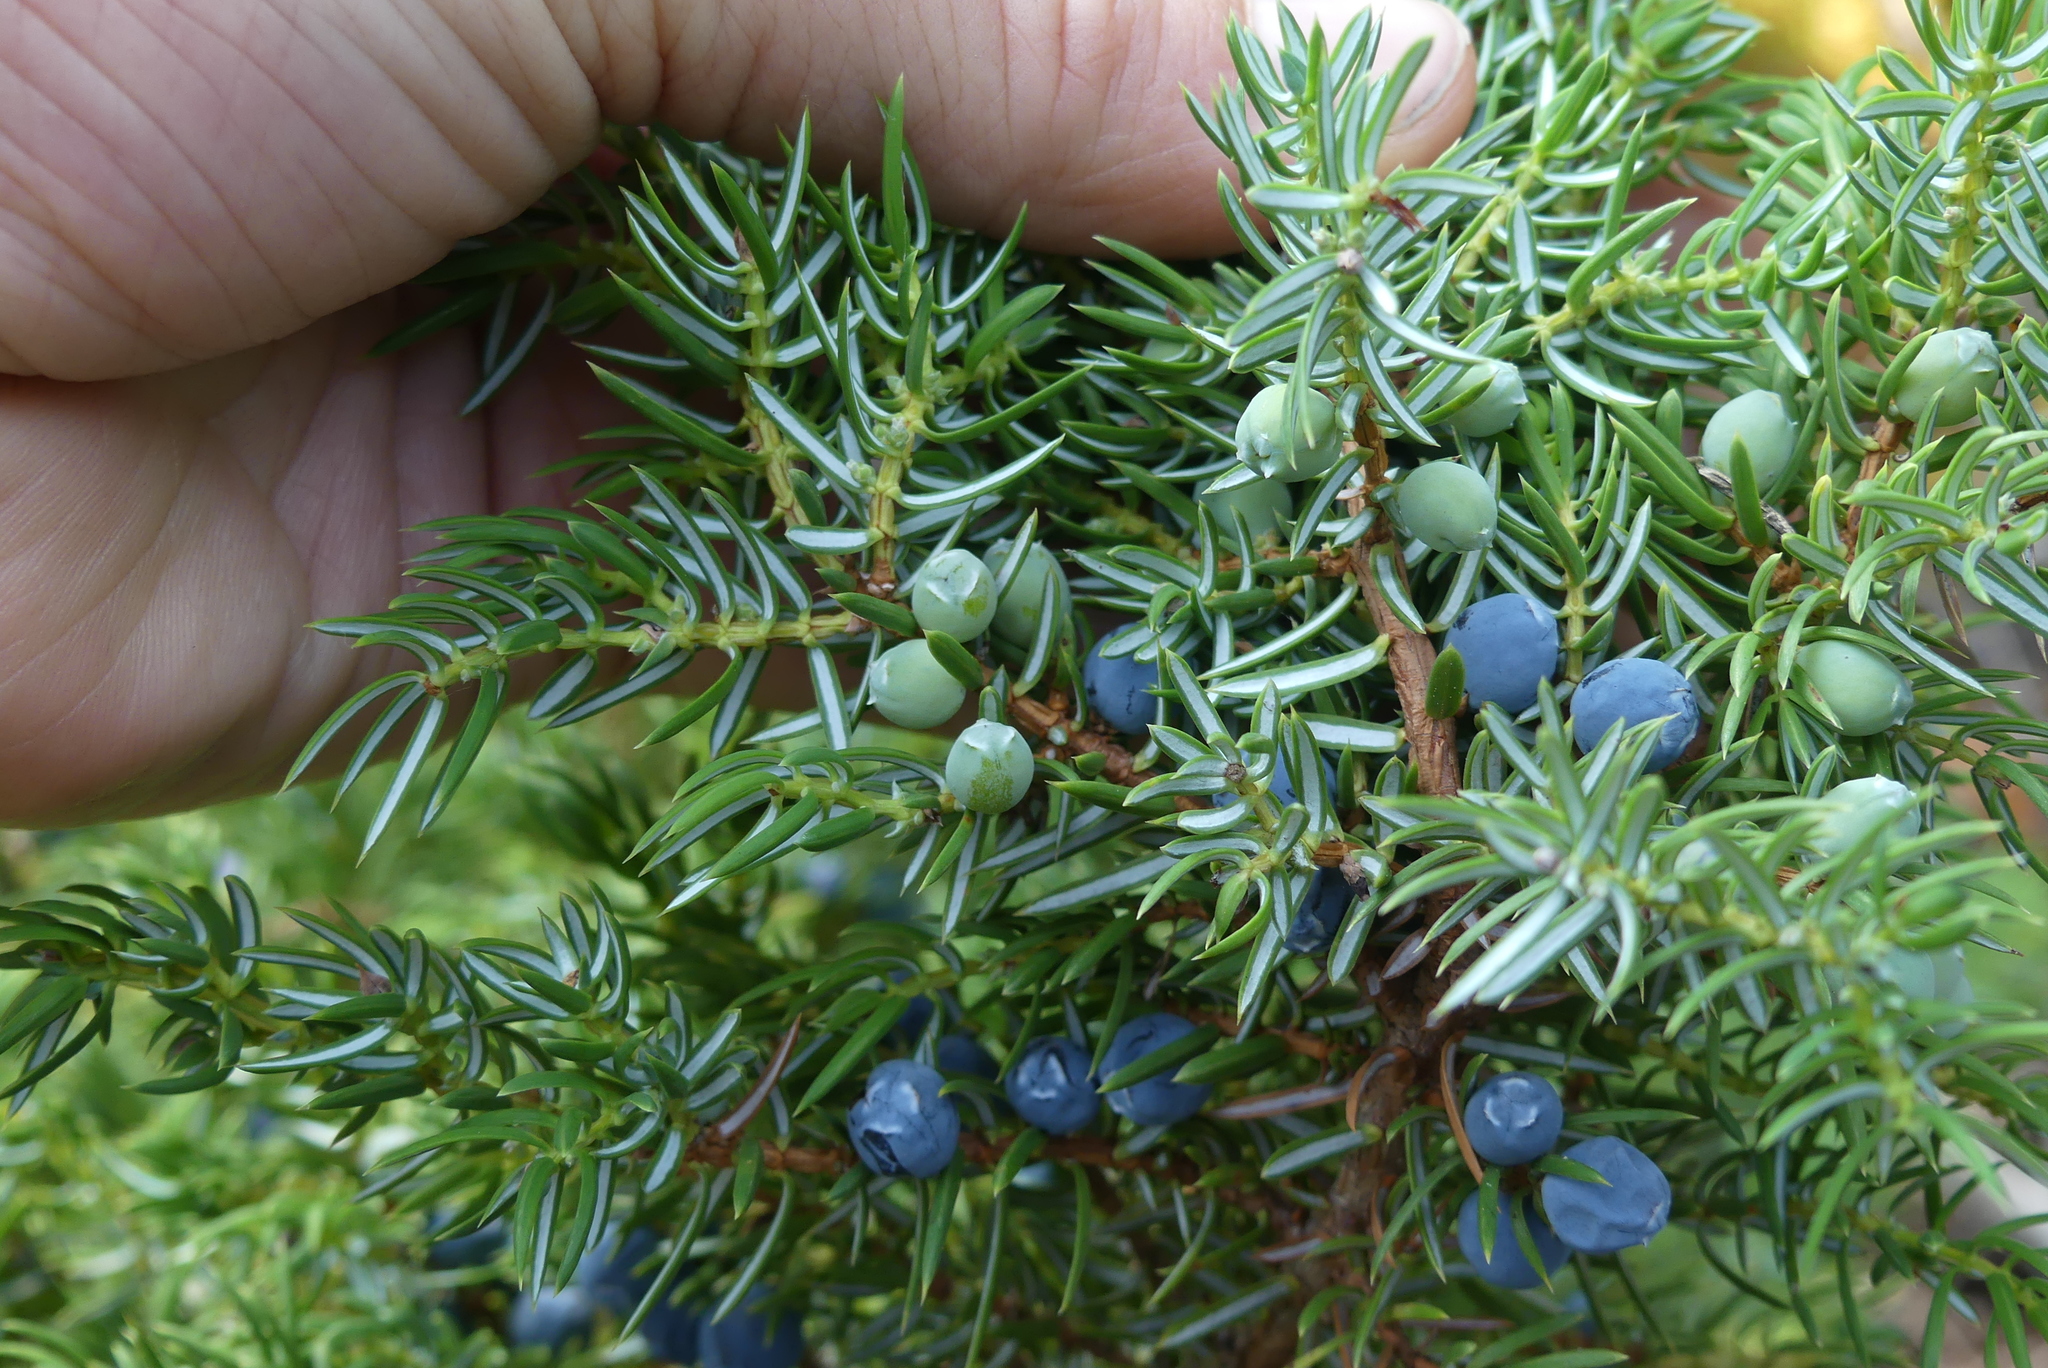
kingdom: Plantae
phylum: Tracheophyta
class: Pinopsida
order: Pinales
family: Cupressaceae
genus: Juniperus
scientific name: Juniperus communis
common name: Common juniper
